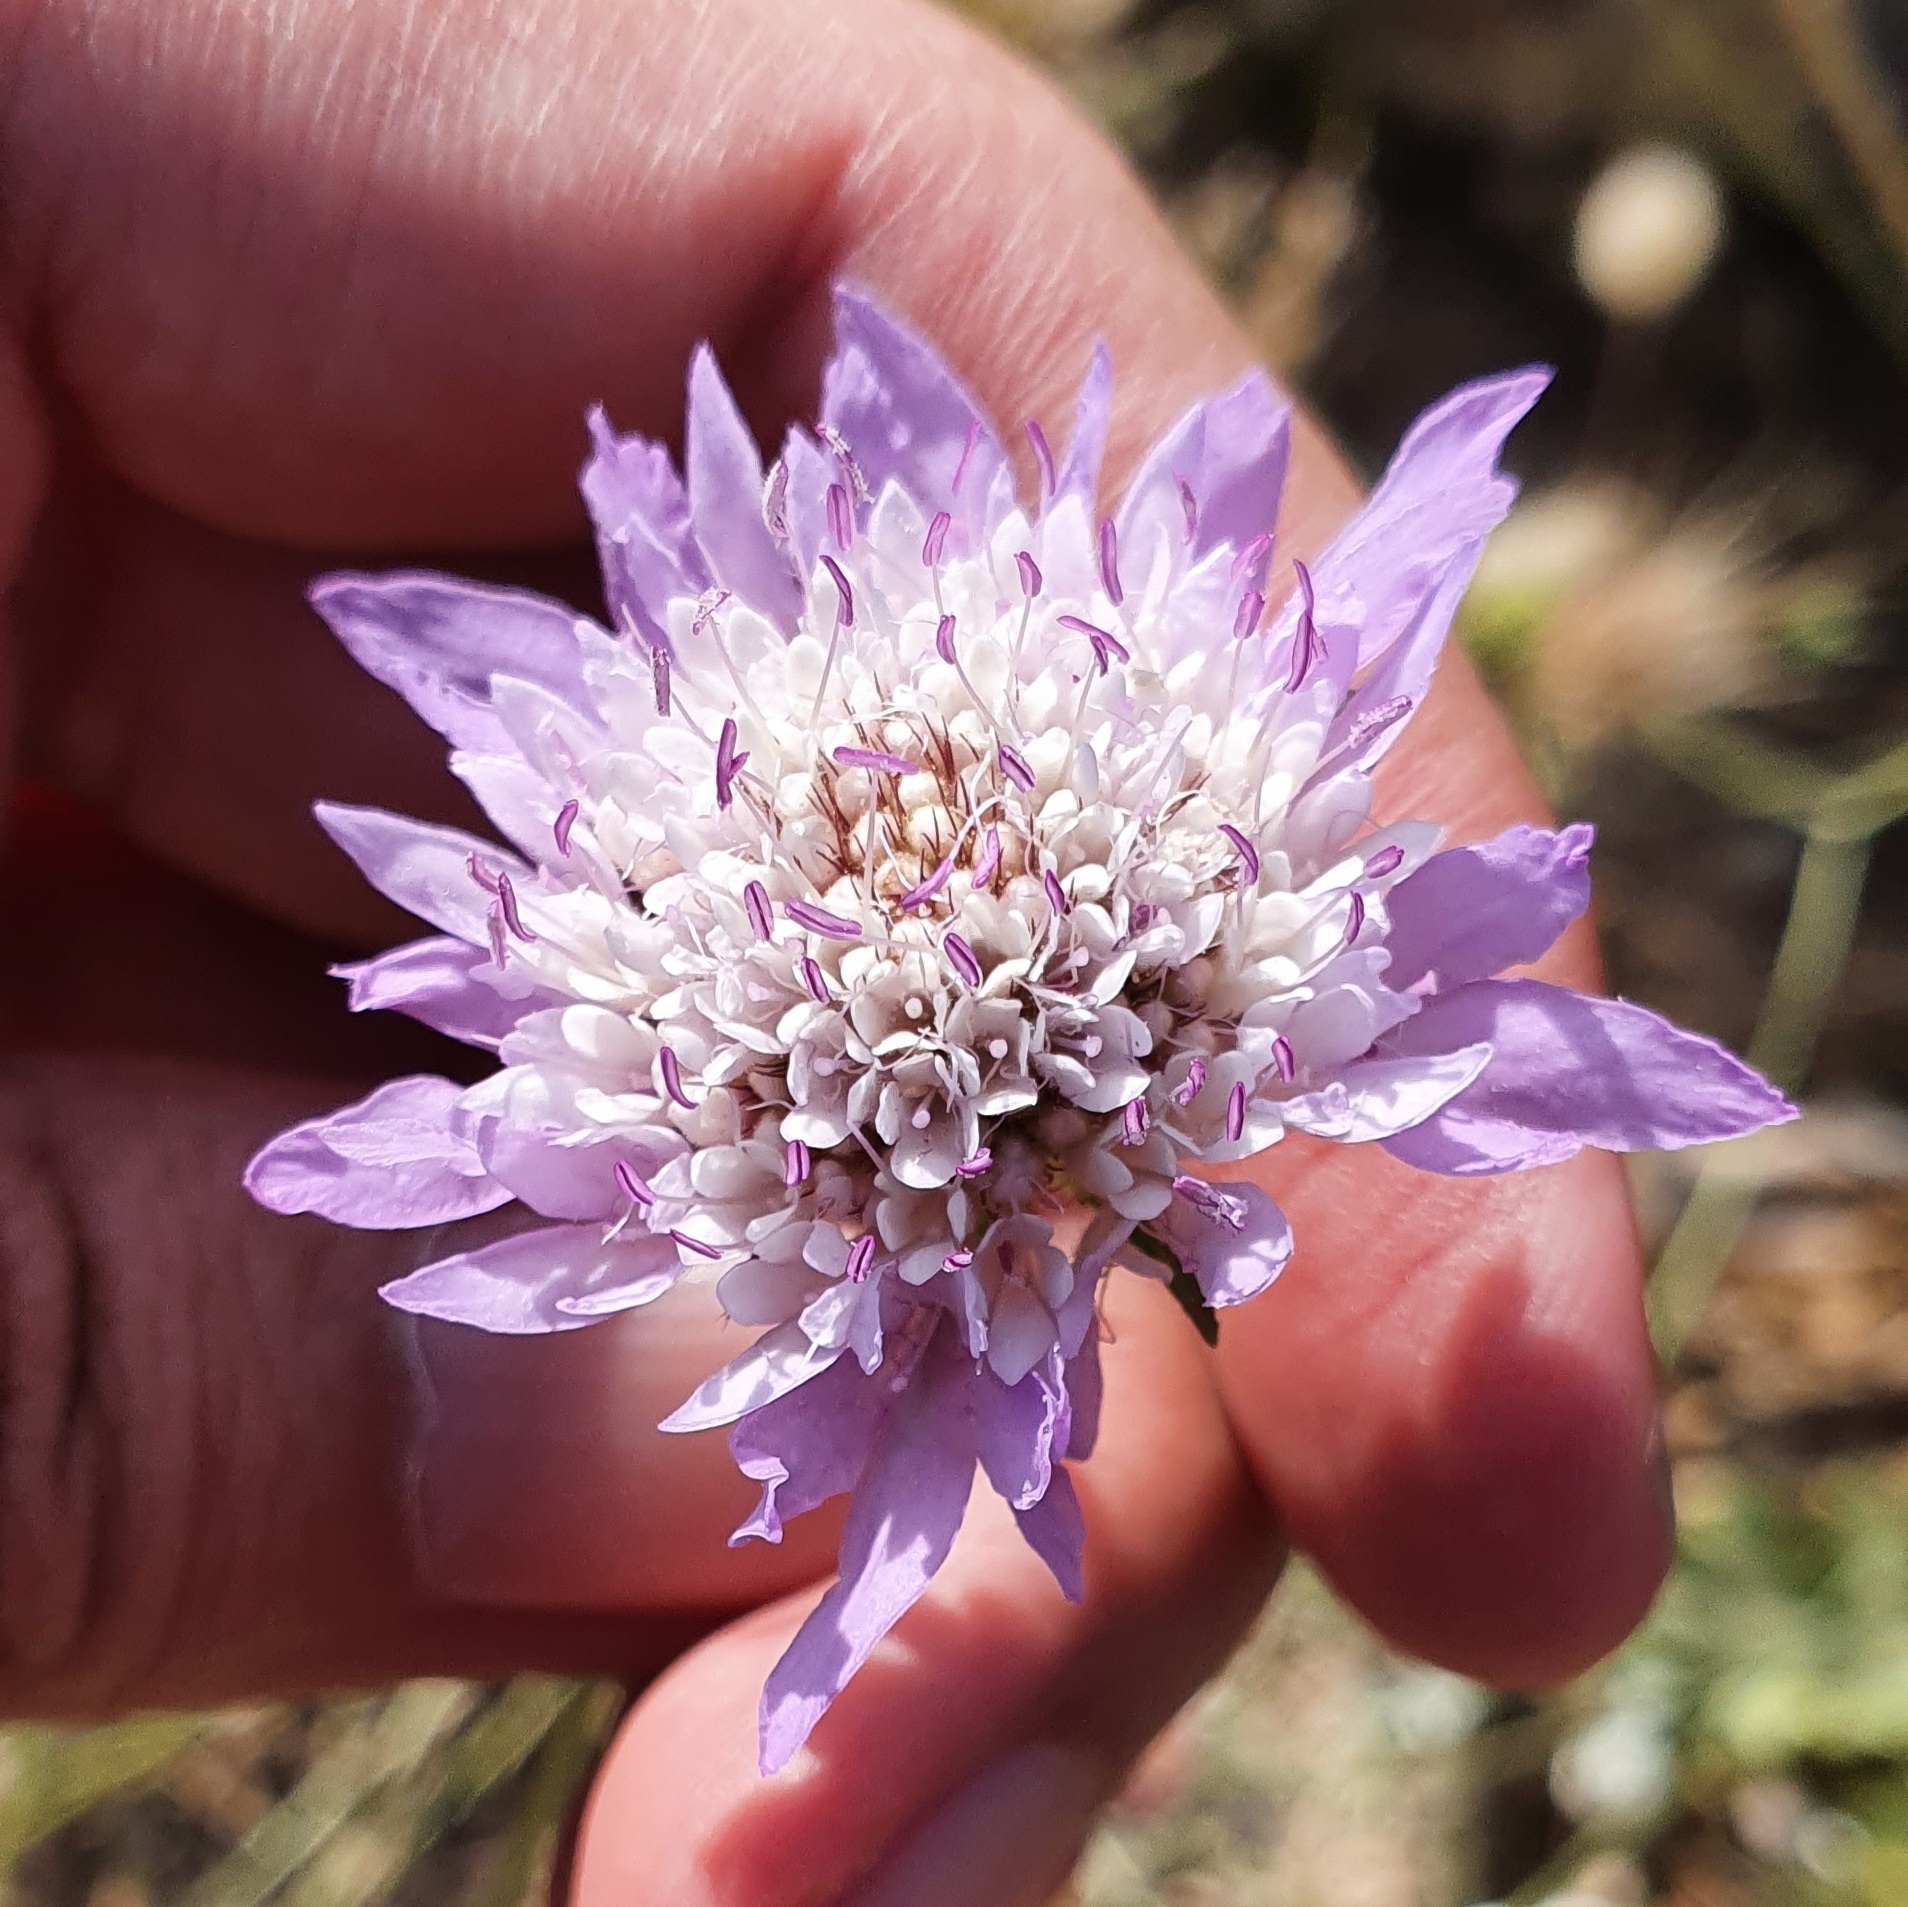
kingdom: Plantae
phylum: Tracheophyta
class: Magnoliopsida
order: Dipsacales
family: Caprifoliaceae
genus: Sixalix
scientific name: Sixalix maritima
